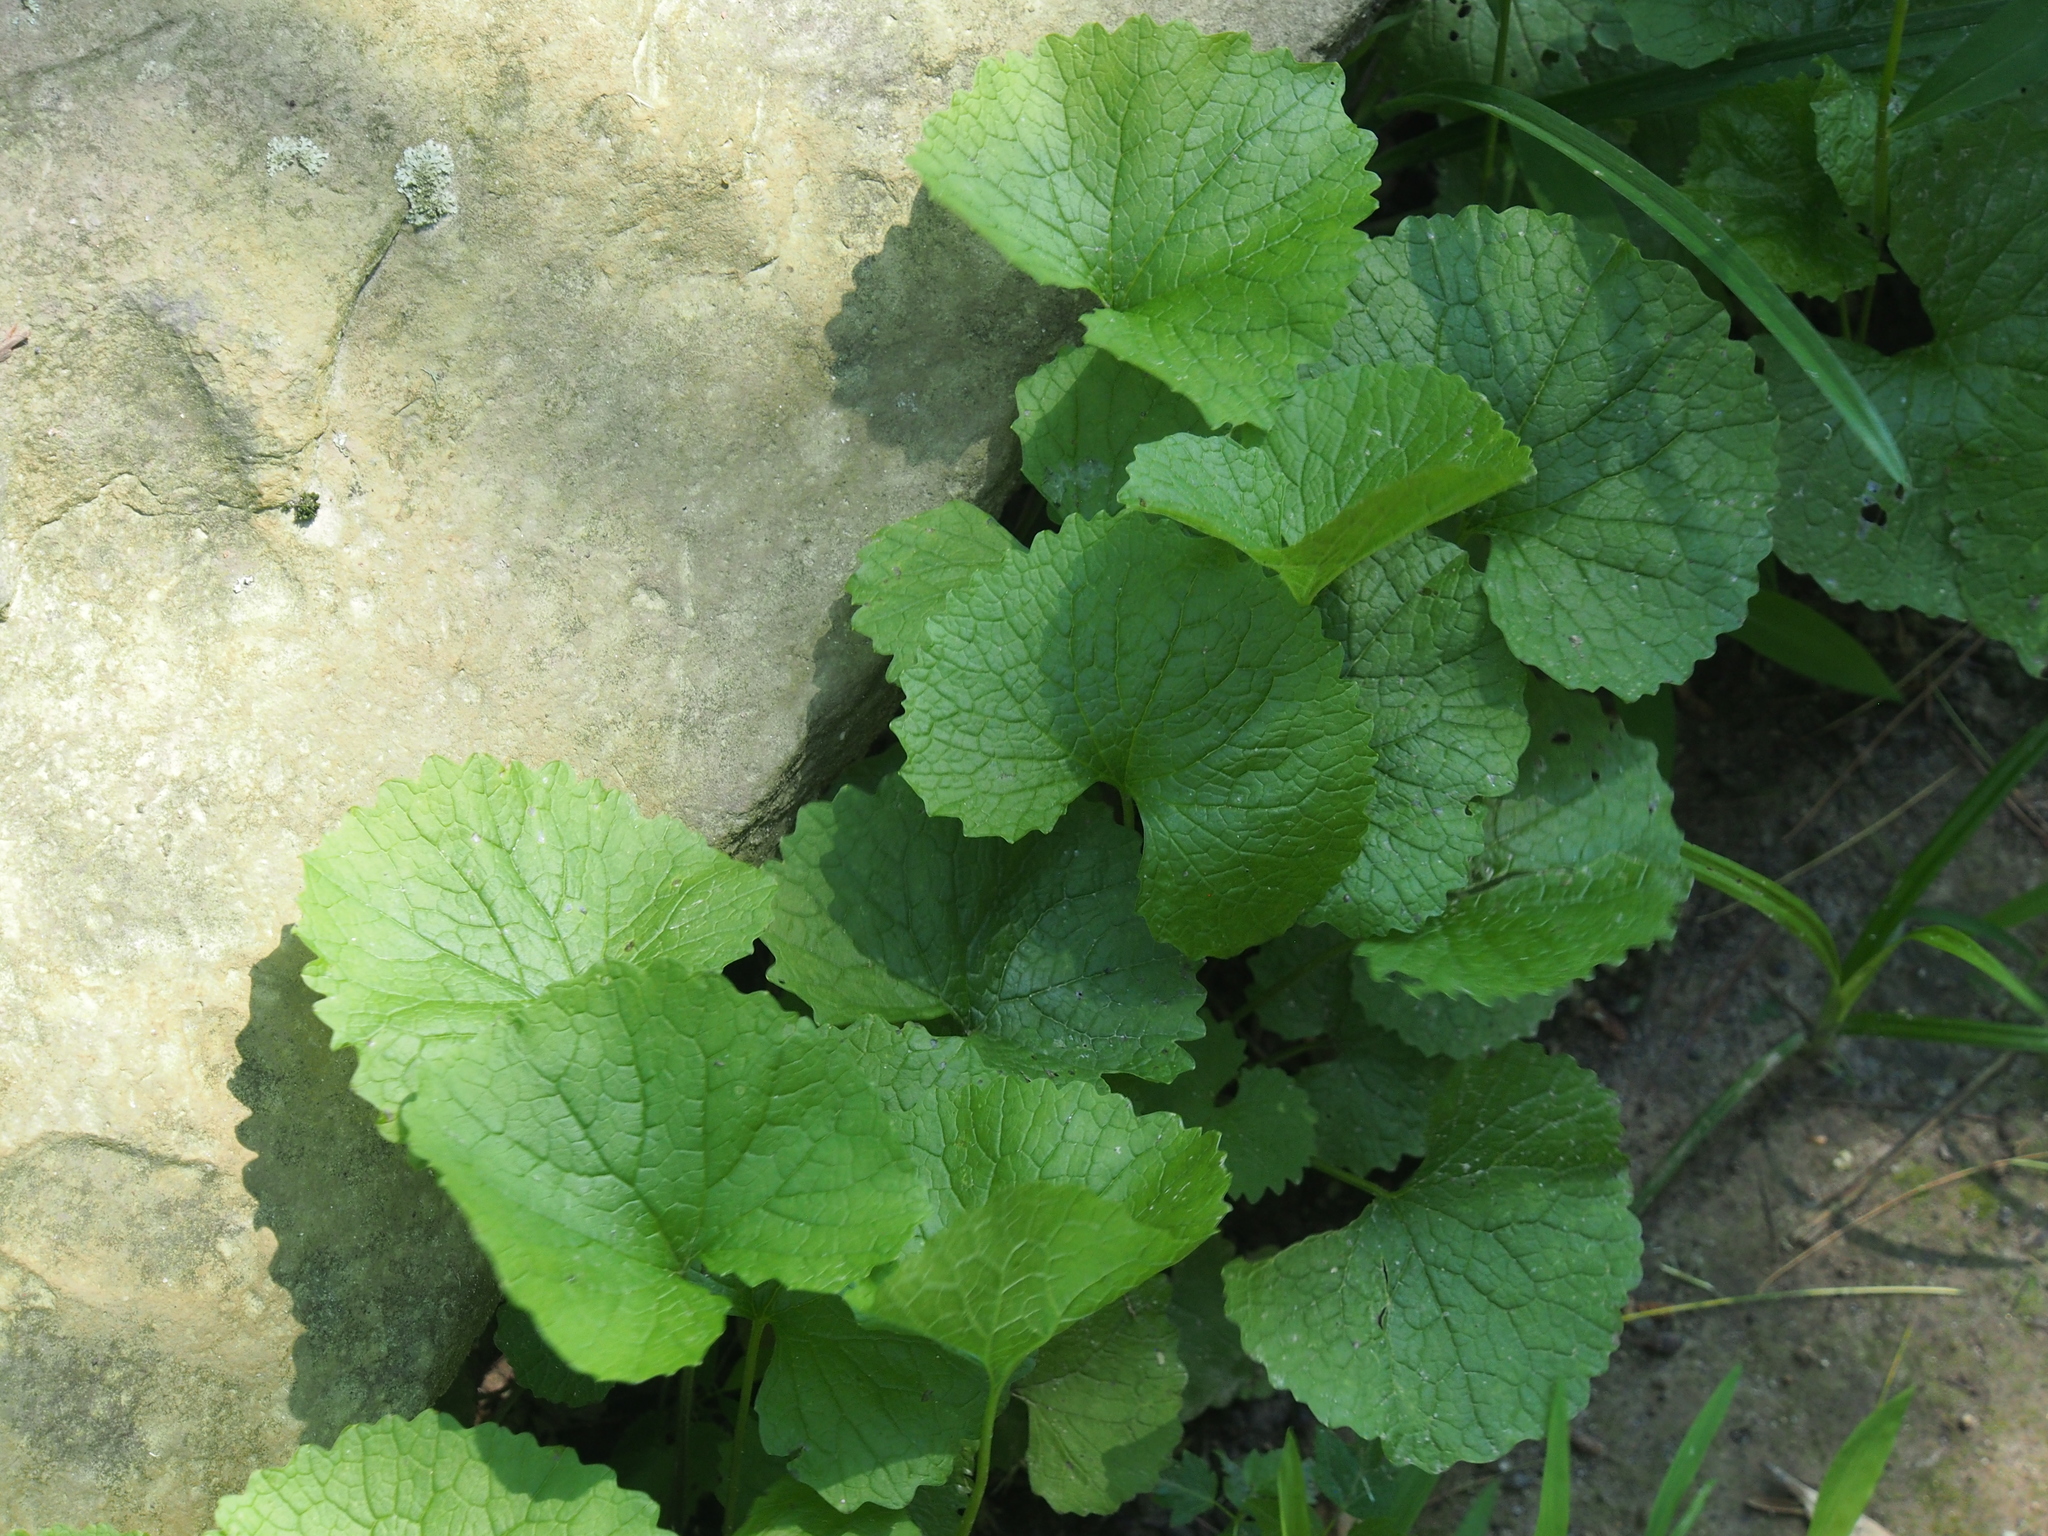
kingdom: Plantae
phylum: Tracheophyta
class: Magnoliopsida
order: Brassicales
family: Brassicaceae
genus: Alliaria
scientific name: Alliaria petiolata
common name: Garlic mustard
